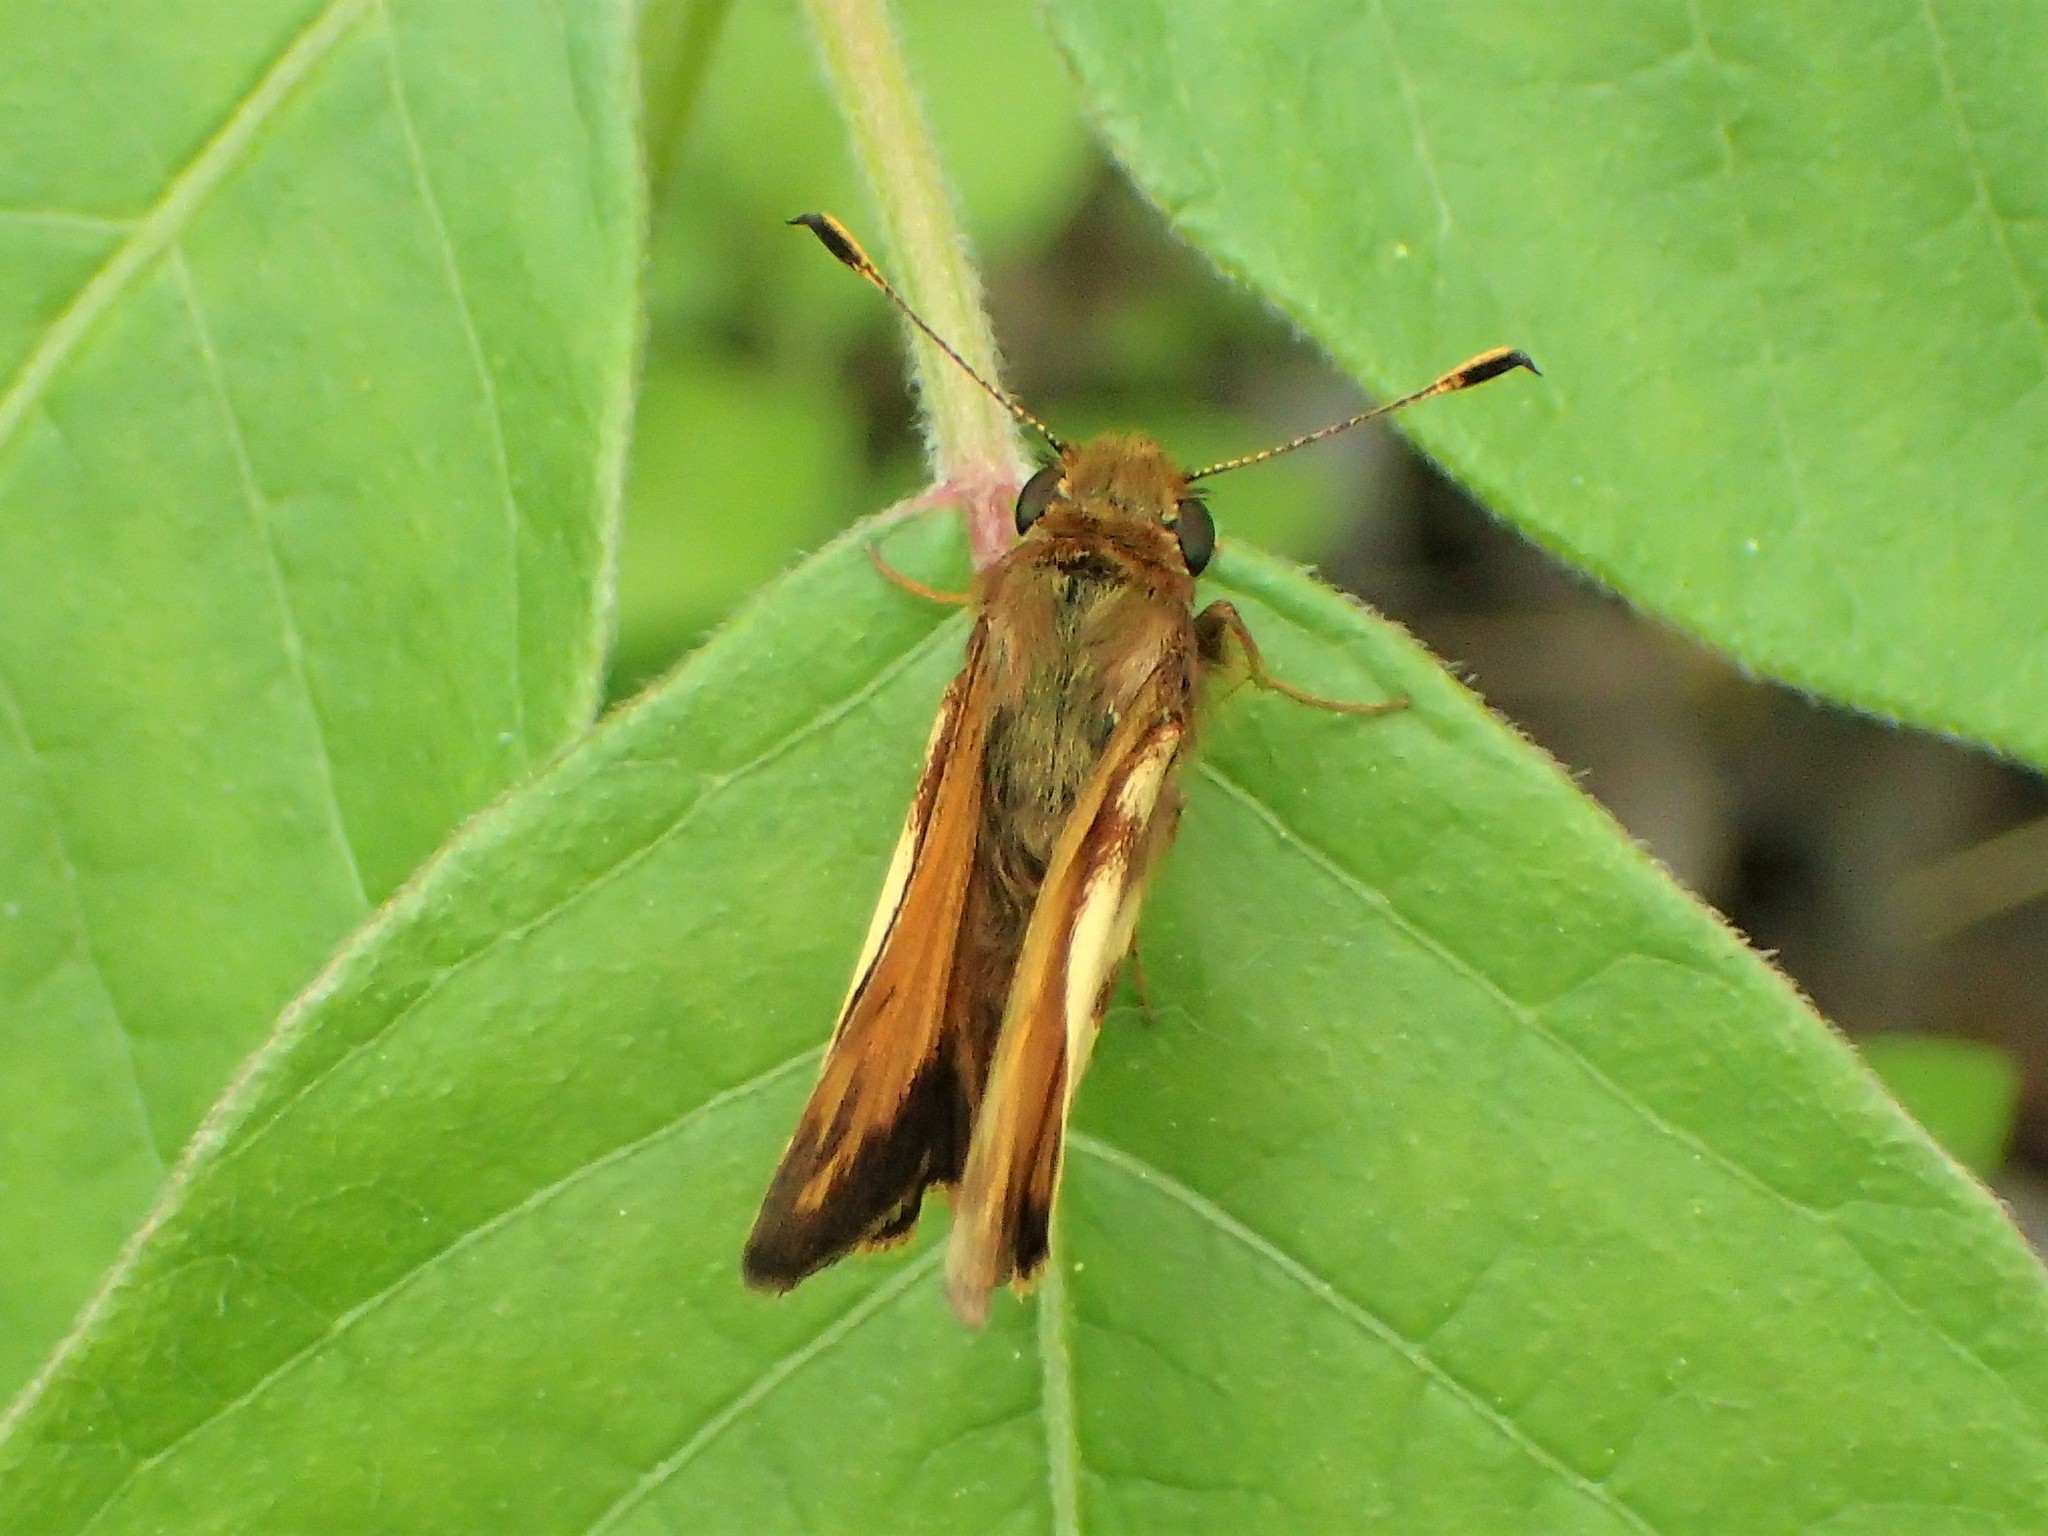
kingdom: Animalia
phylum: Arthropoda
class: Insecta
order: Lepidoptera
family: Hesperiidae
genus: Lon
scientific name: Lon zabulon
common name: Zabulon skipper
